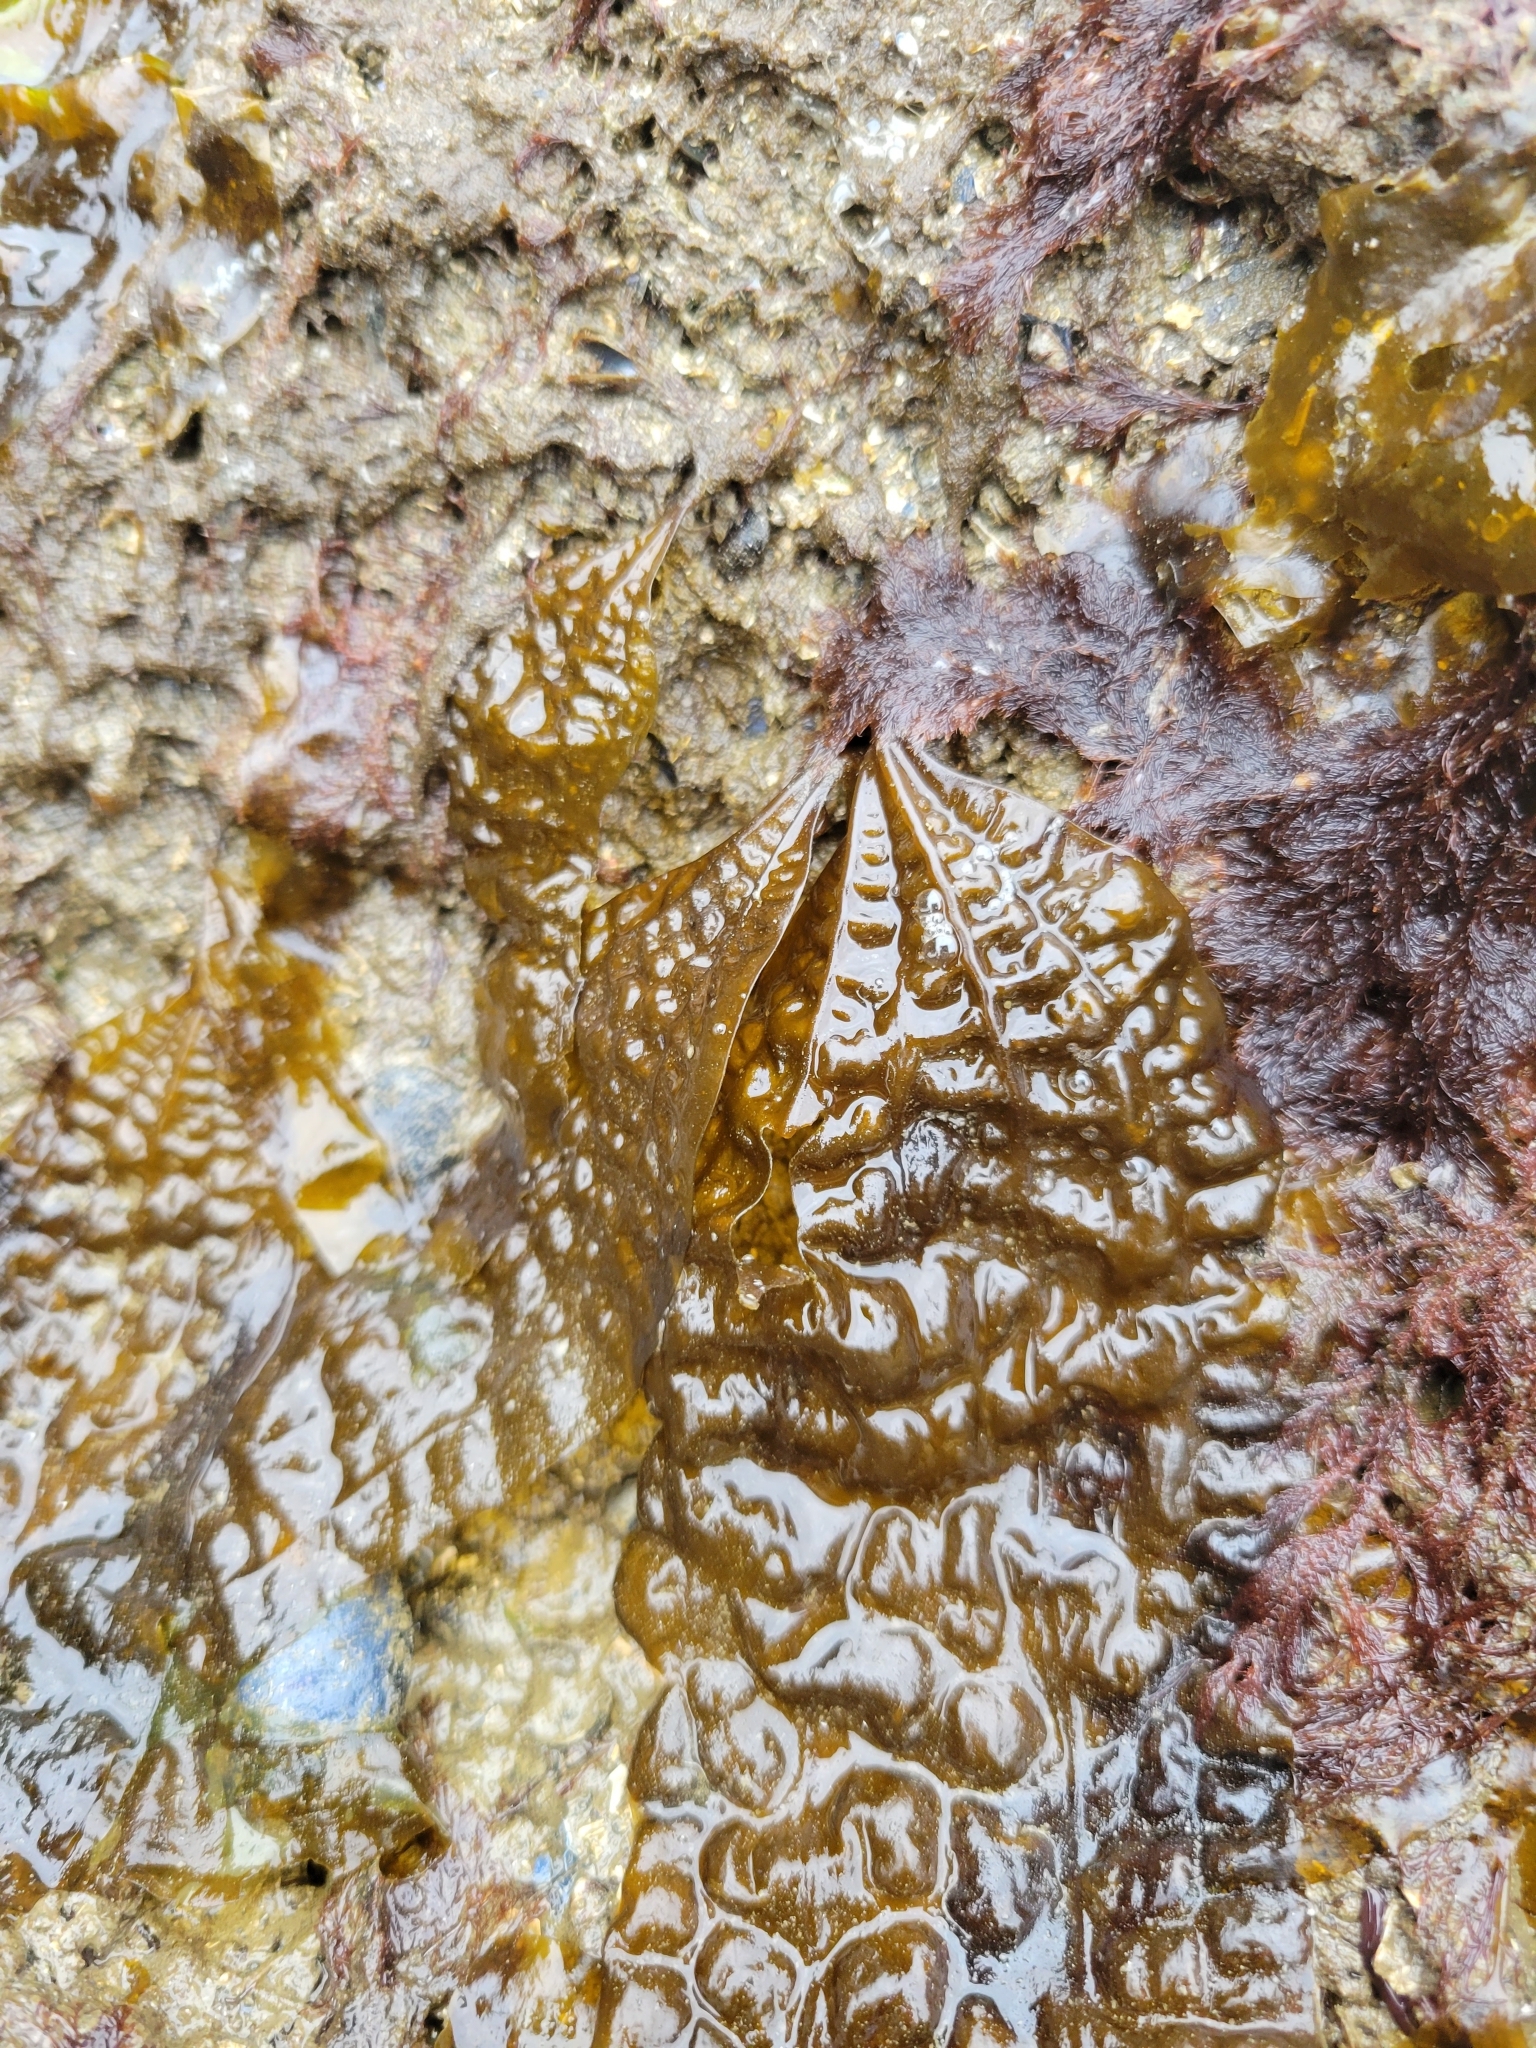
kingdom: Chromista
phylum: Ochrophyta
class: Phaeophyceae
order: Laminariales
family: Costariaceae
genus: Costaria
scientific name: Costaria costata
